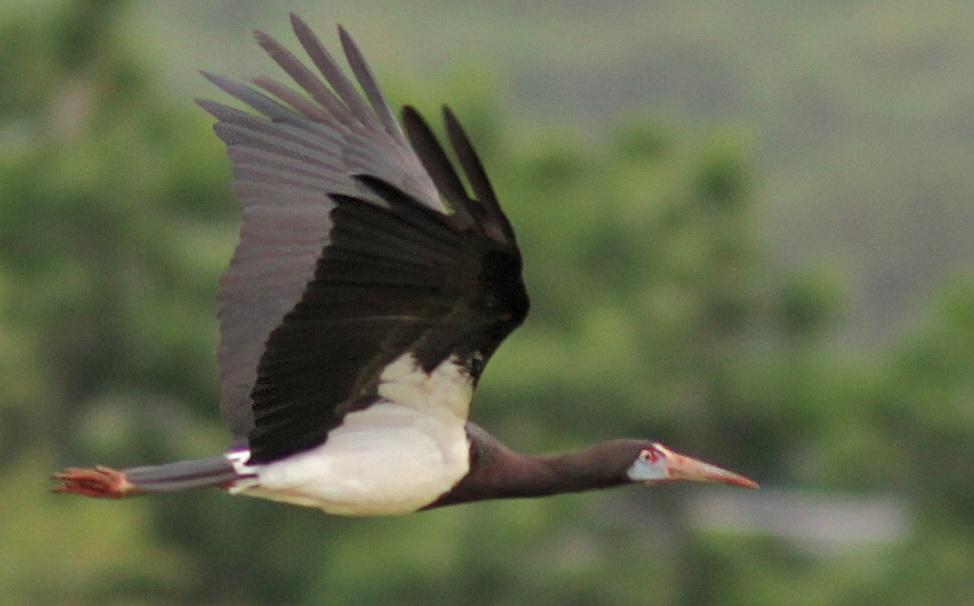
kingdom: Animalia
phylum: Chordata
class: Aves
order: Ciconiiformes
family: Ciconiidae
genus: Ciconia
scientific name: Ciconia abdimii
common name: Abdim's stork
